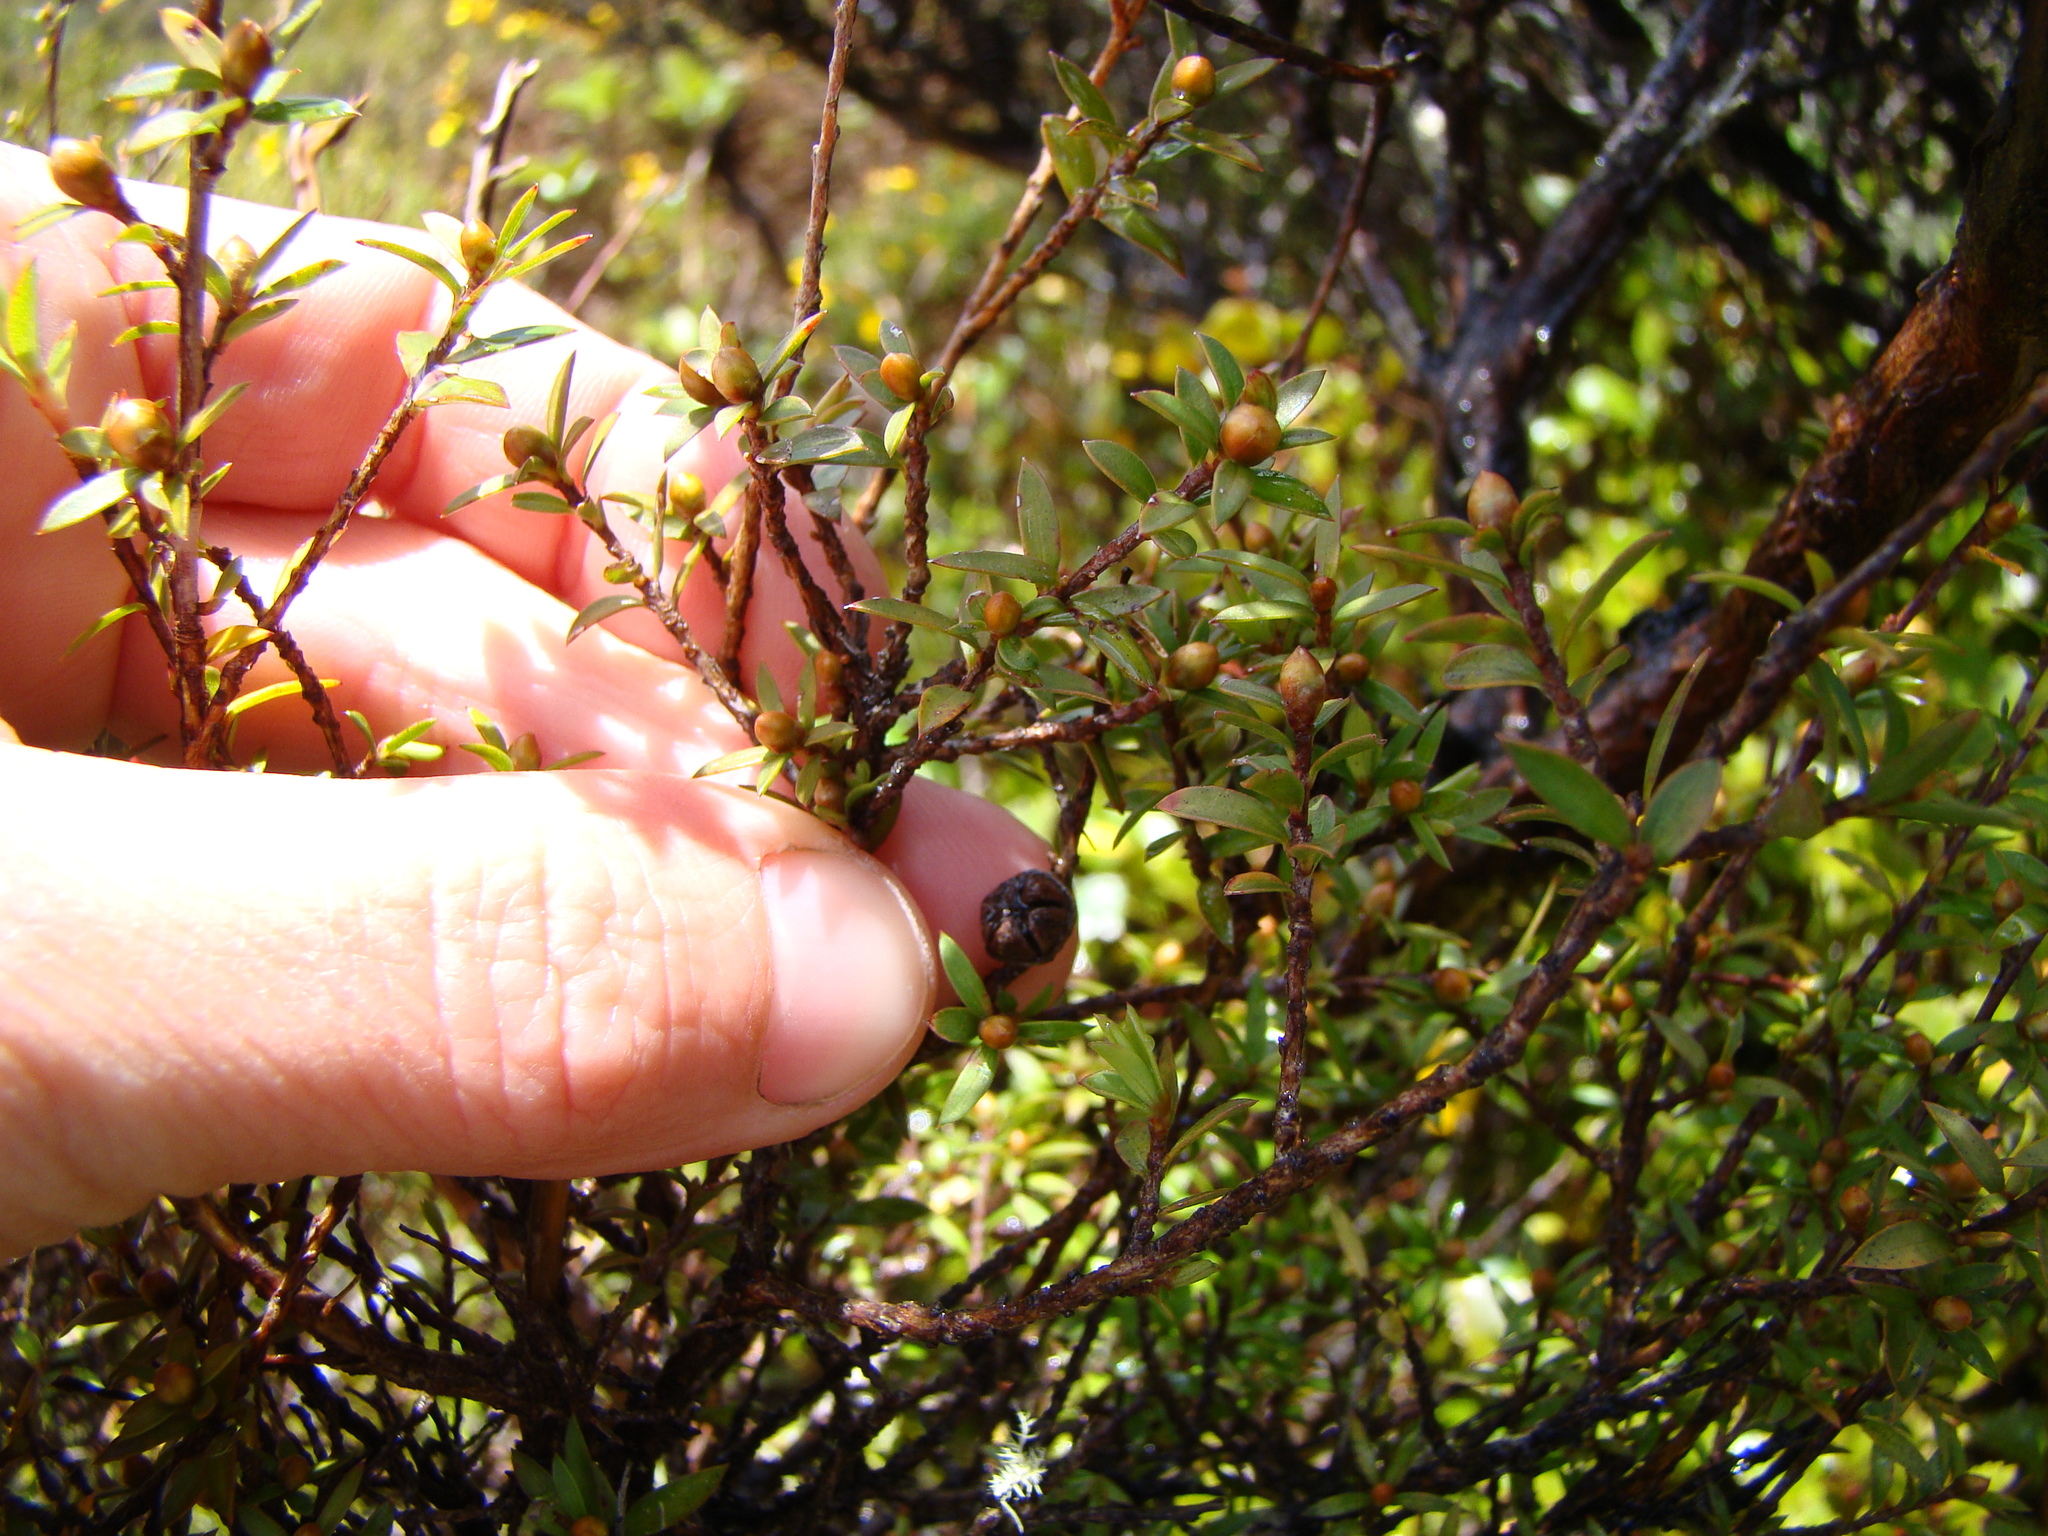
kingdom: Plantae
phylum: Tracheophyta
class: Magnoliopsida
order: Myrtales
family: Myrtaceae
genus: Leptospermum
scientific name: Leptospermum scoparium
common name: Broom tea-tree
